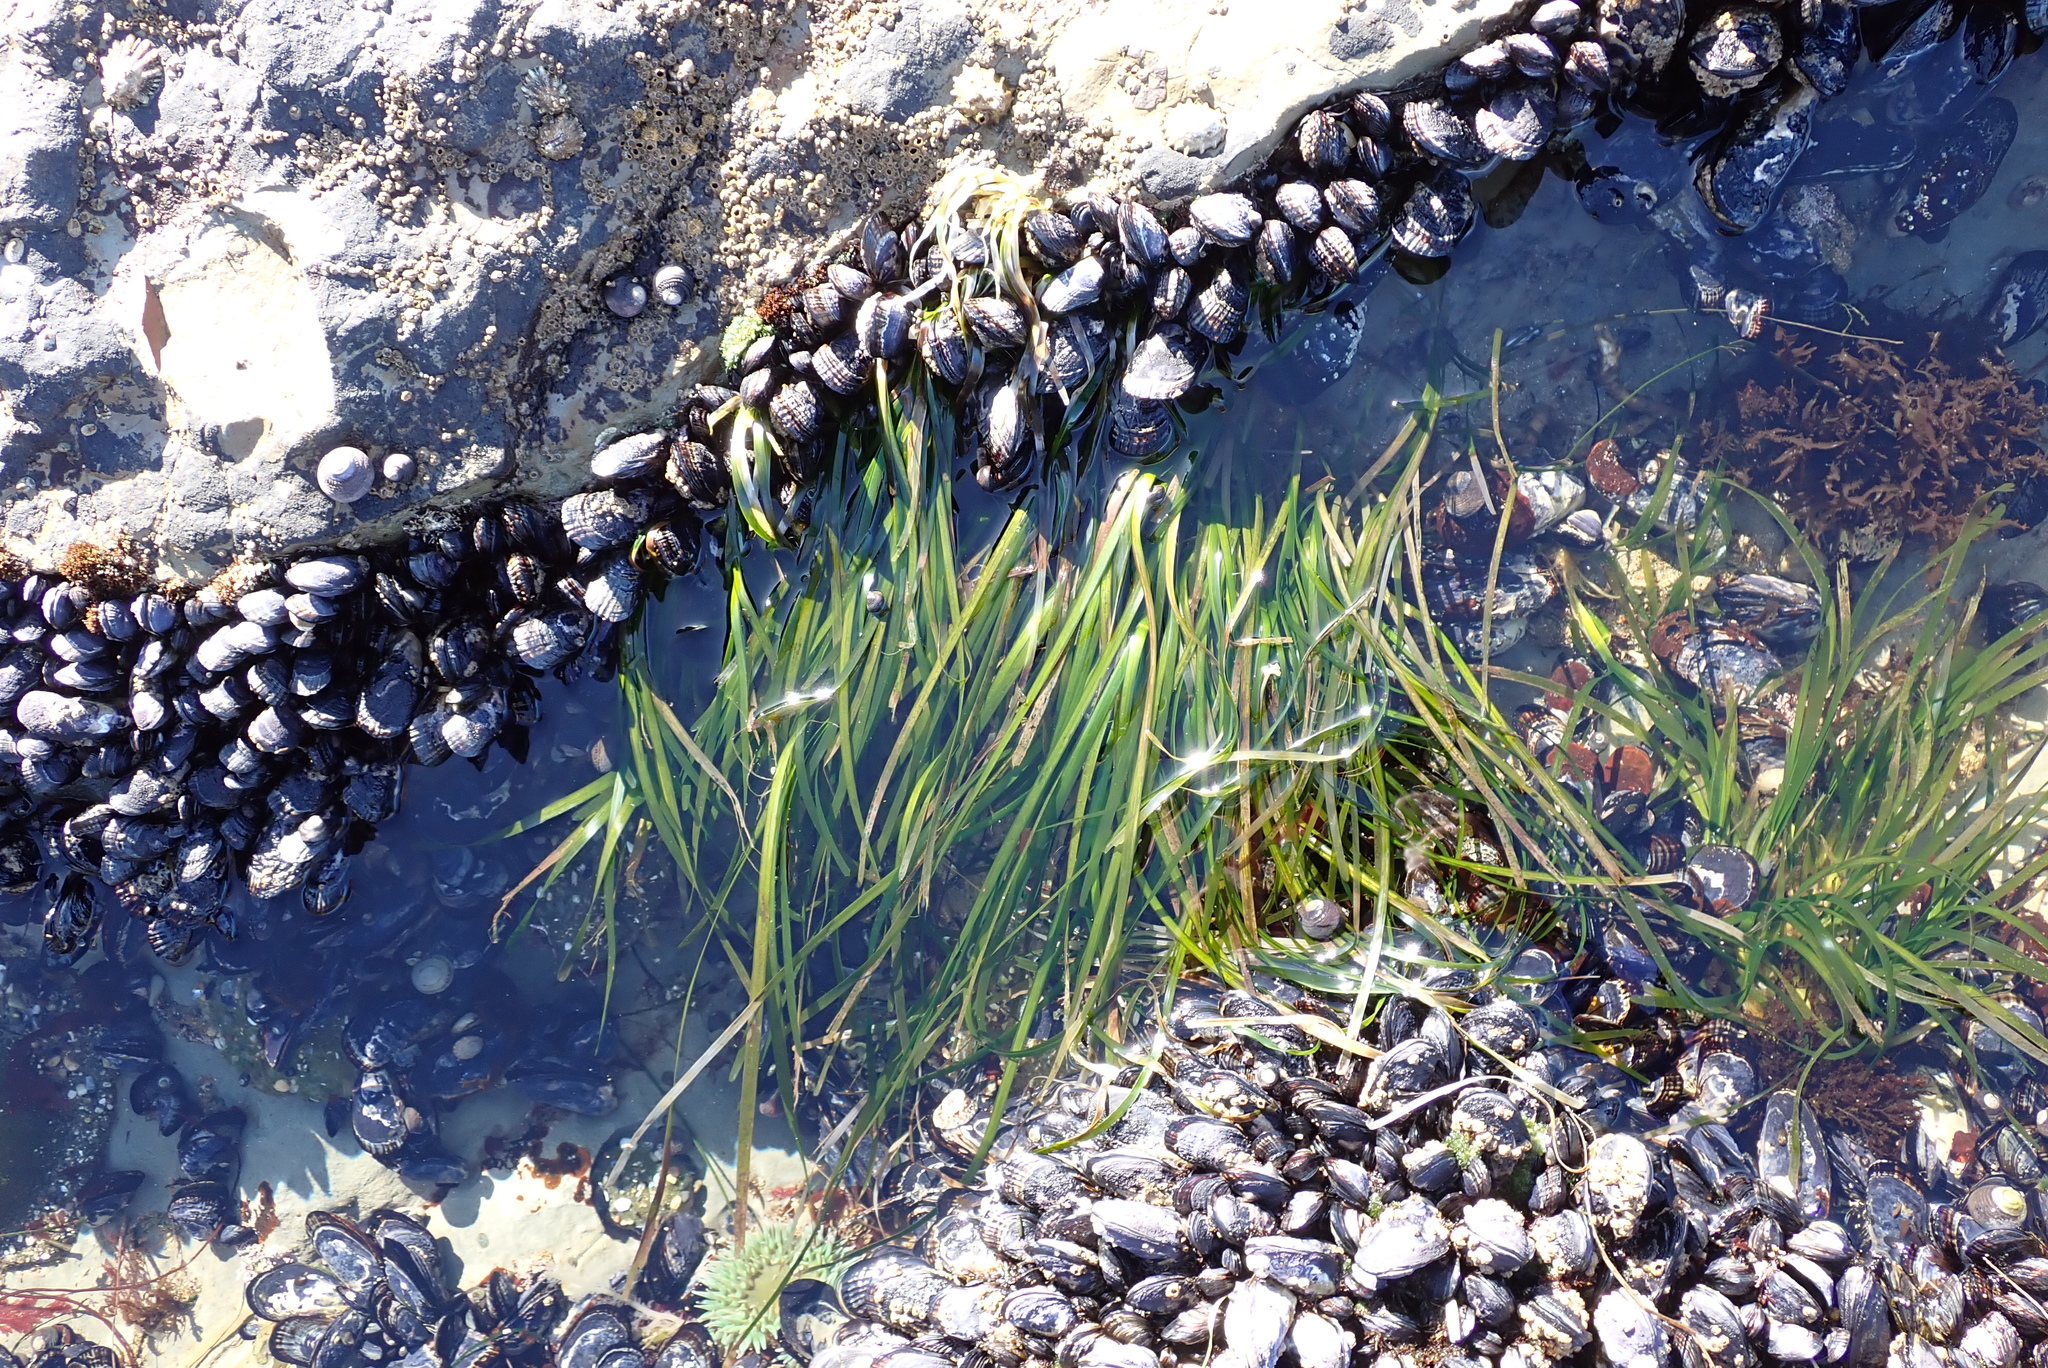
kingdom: Plantae
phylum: Tracheophyta
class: Liliopsida
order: Alismatales
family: Zosteraceae
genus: Phyllospadix
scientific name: Phyllospadix scouleri
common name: Species code: ps
